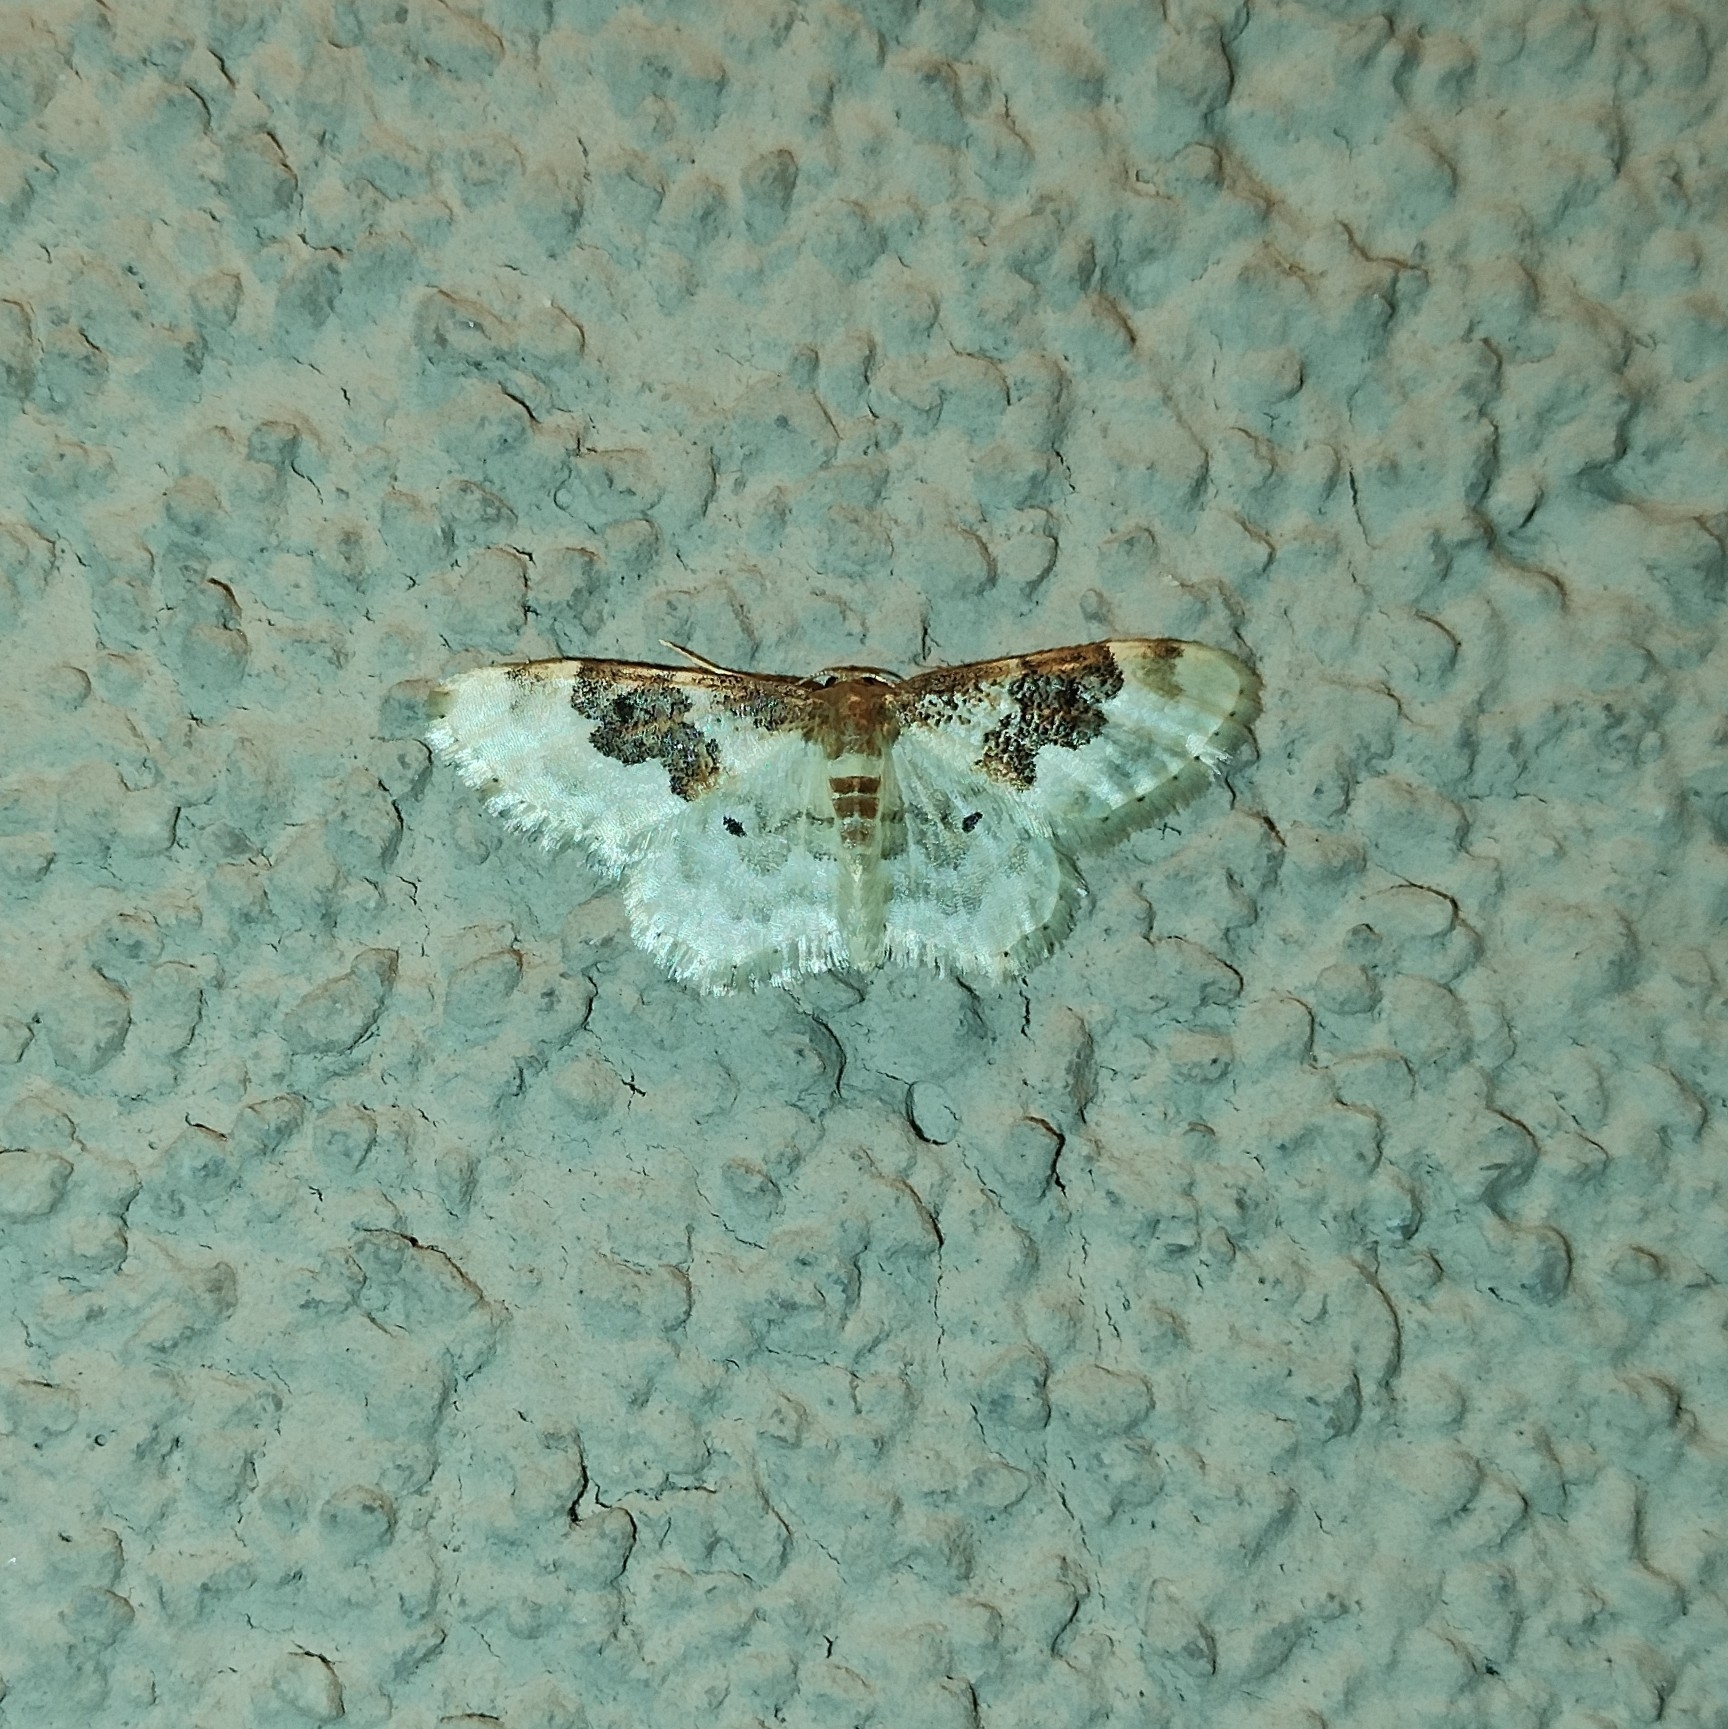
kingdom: Animalia
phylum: Arthropoda
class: Insecta
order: Lepidoptera
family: Geometridae
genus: Idaea
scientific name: Idaea rusticata
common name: Least carpet
